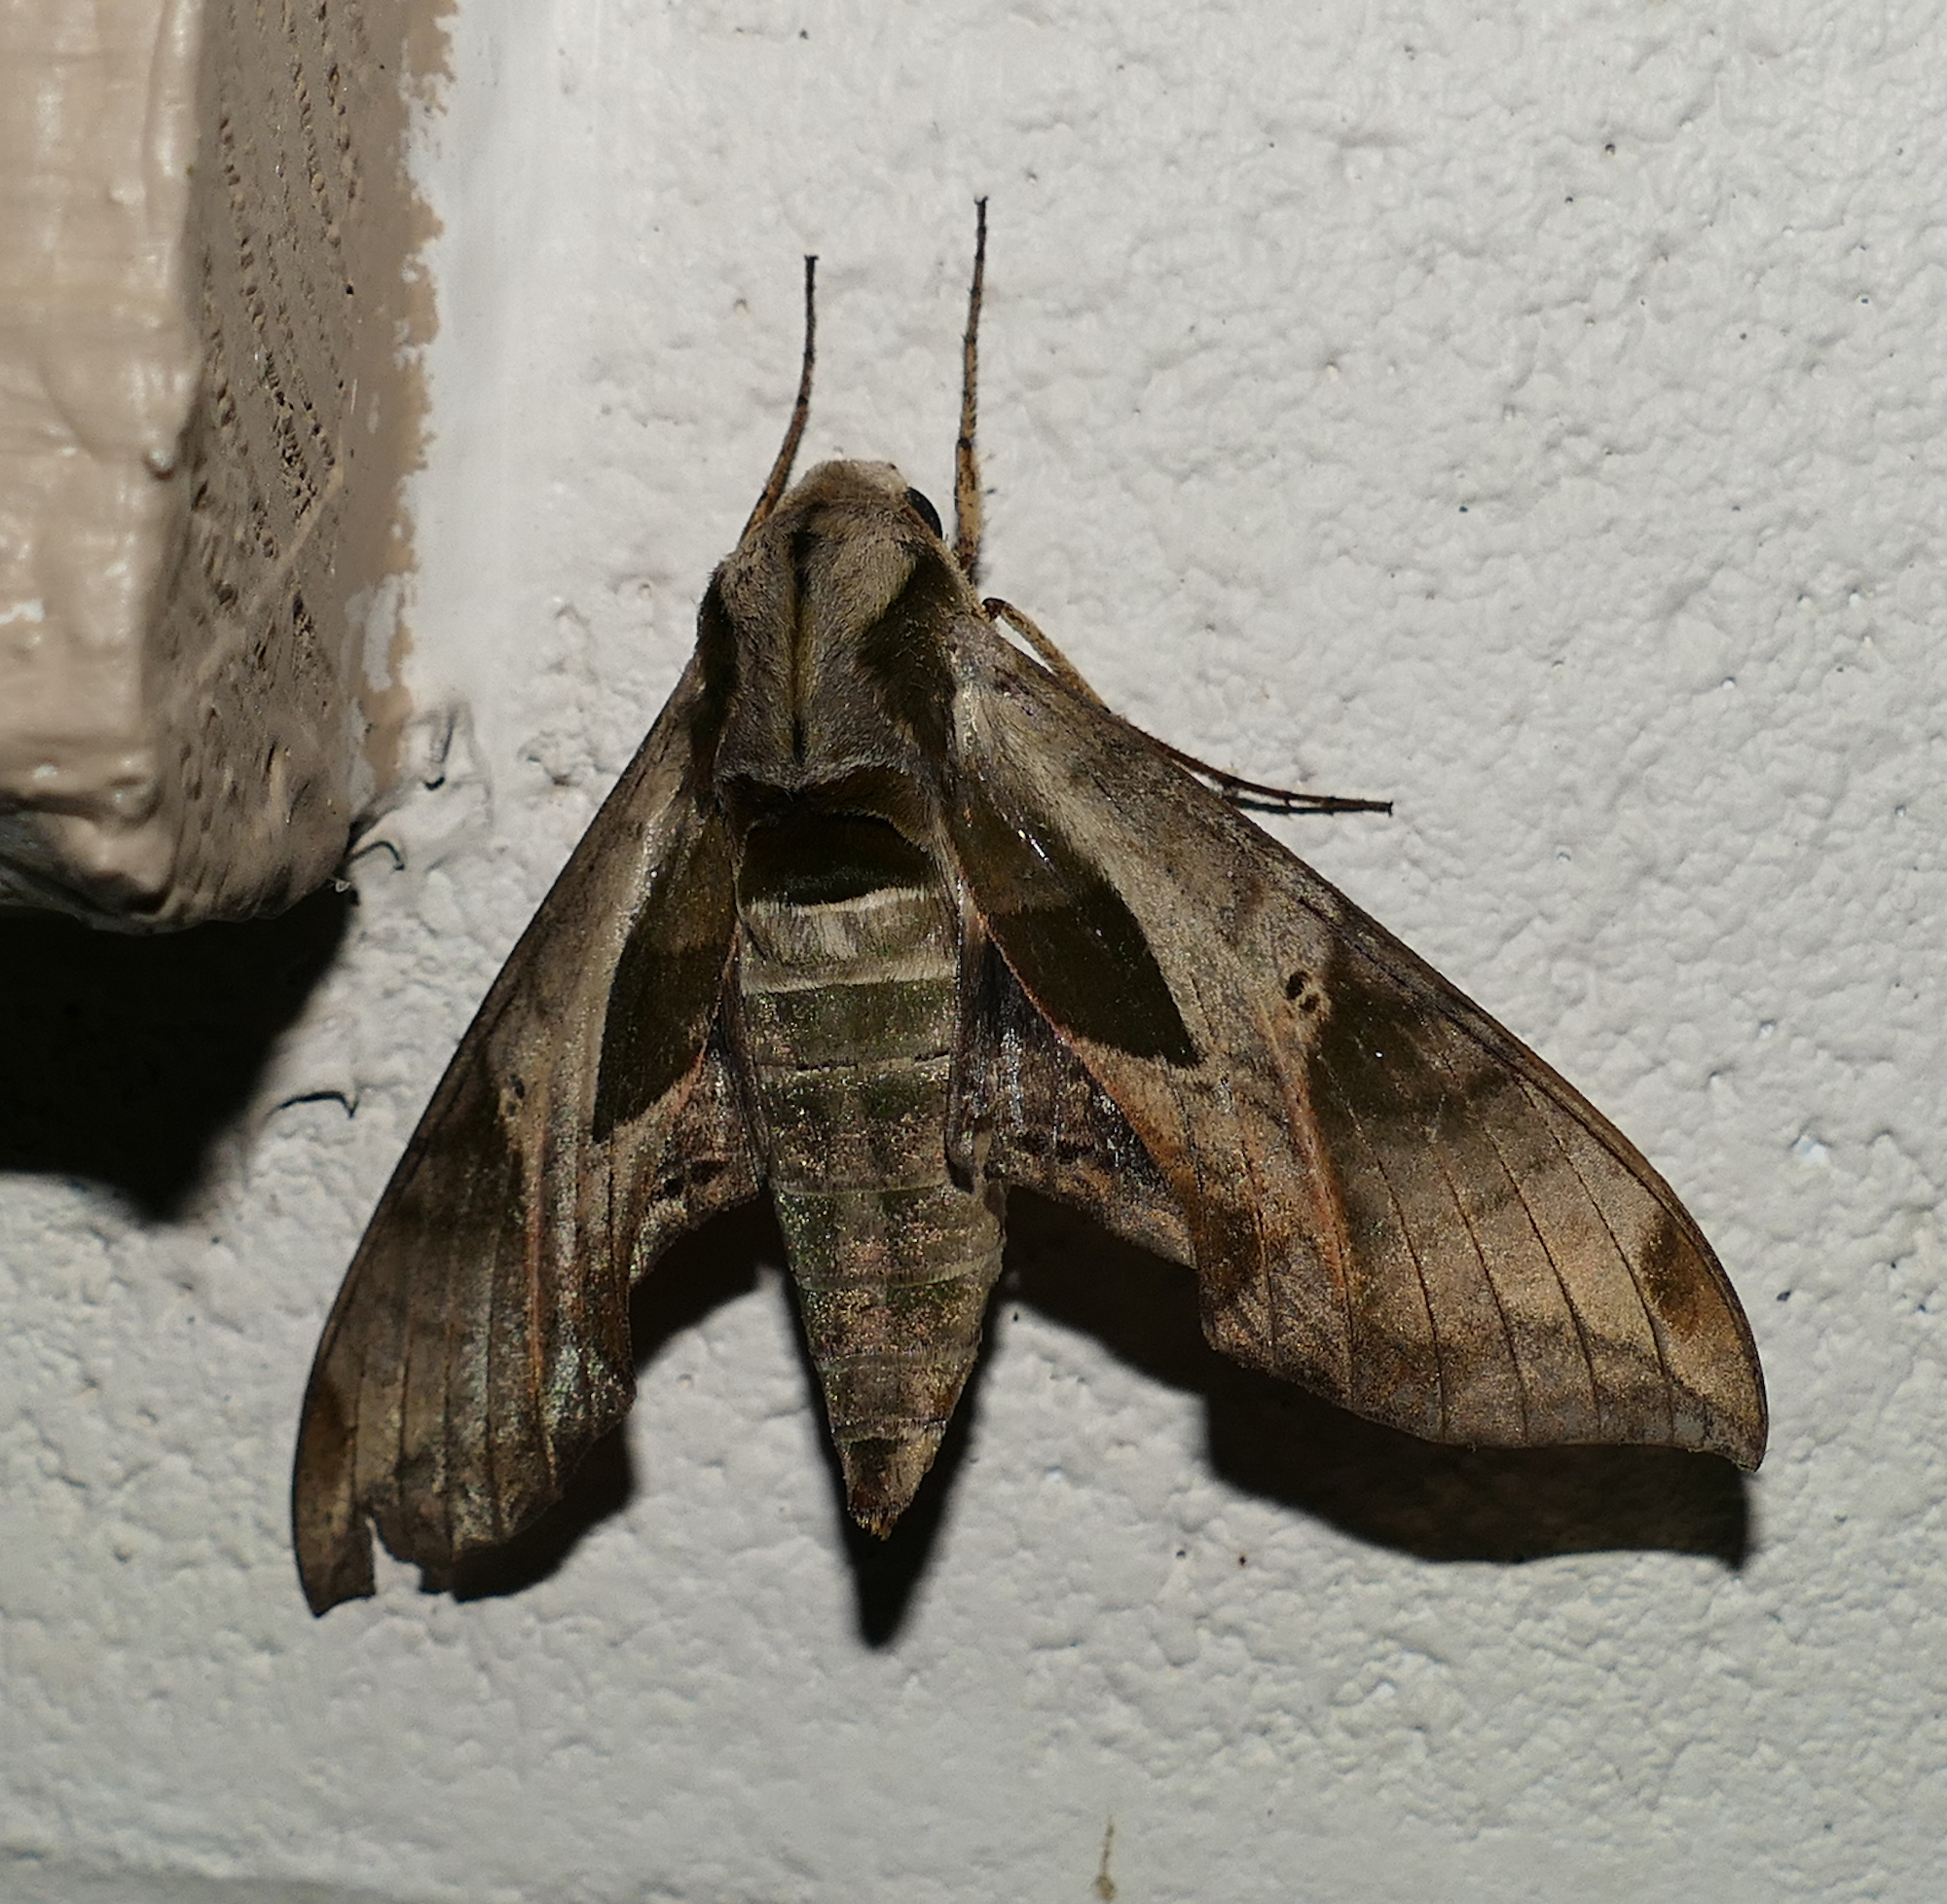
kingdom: Animalia
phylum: Arthropoda
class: Insecta
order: Lepidoptera
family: Sphingidae
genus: Eumorpha
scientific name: Eumorpha pandorus
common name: Pandora sphinx
